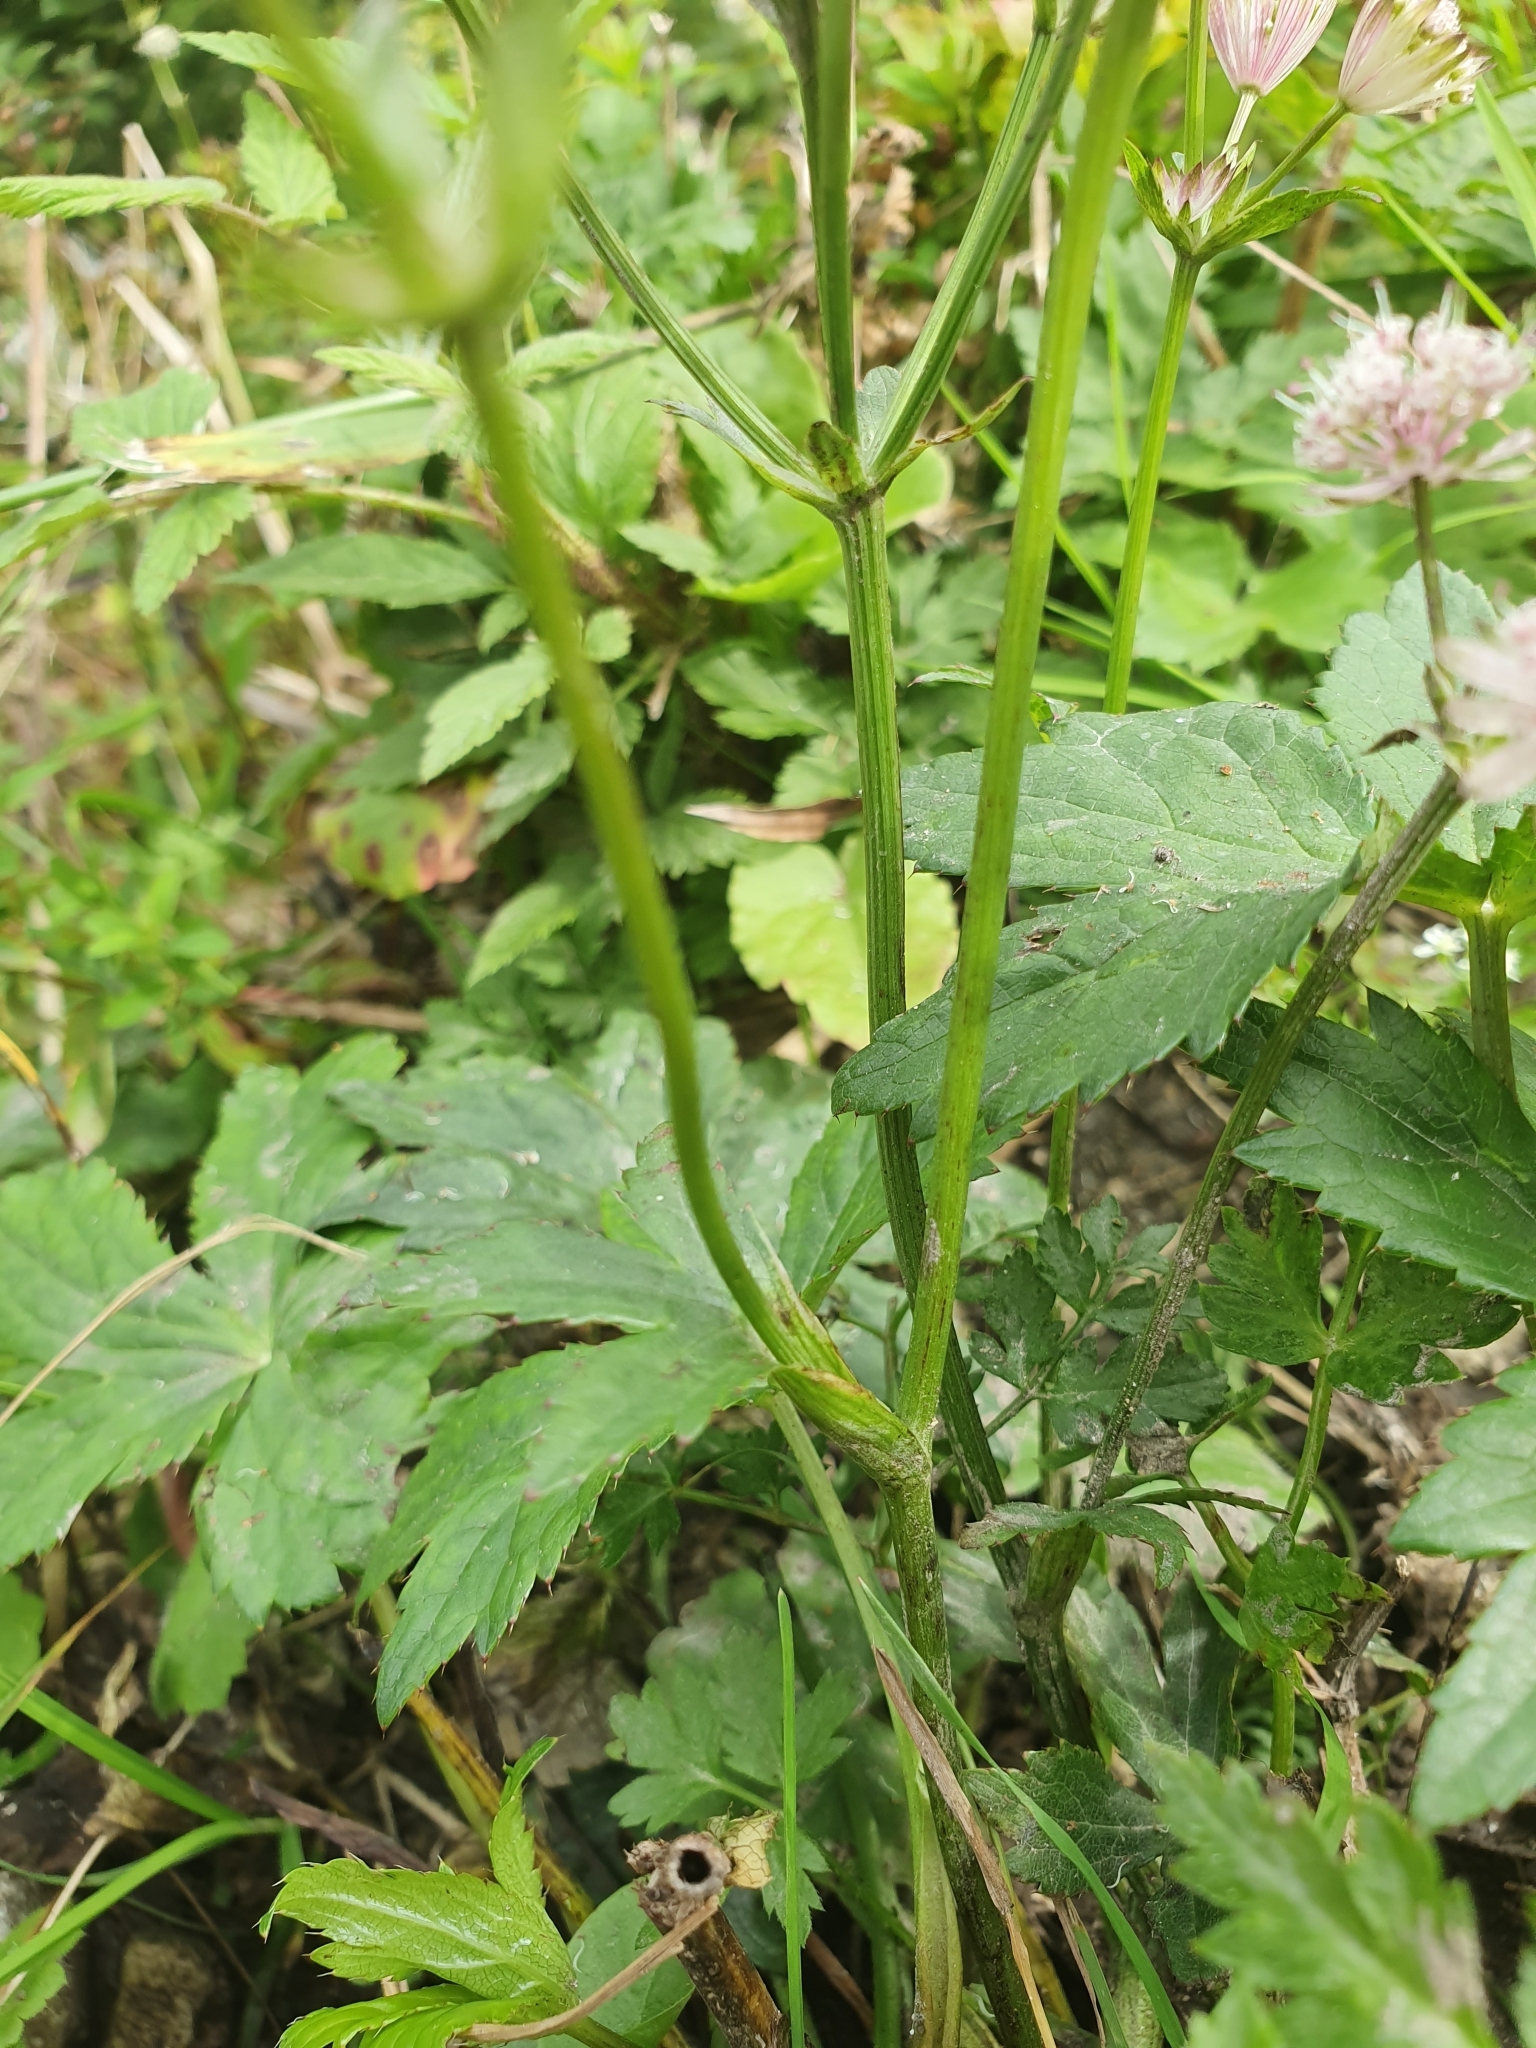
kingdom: Plantae
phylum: Tracheophyta
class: Magnoliopsida
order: Apiales
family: Apiaceae
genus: Astrantia
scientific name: Astrantia major
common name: Greater masterwort
